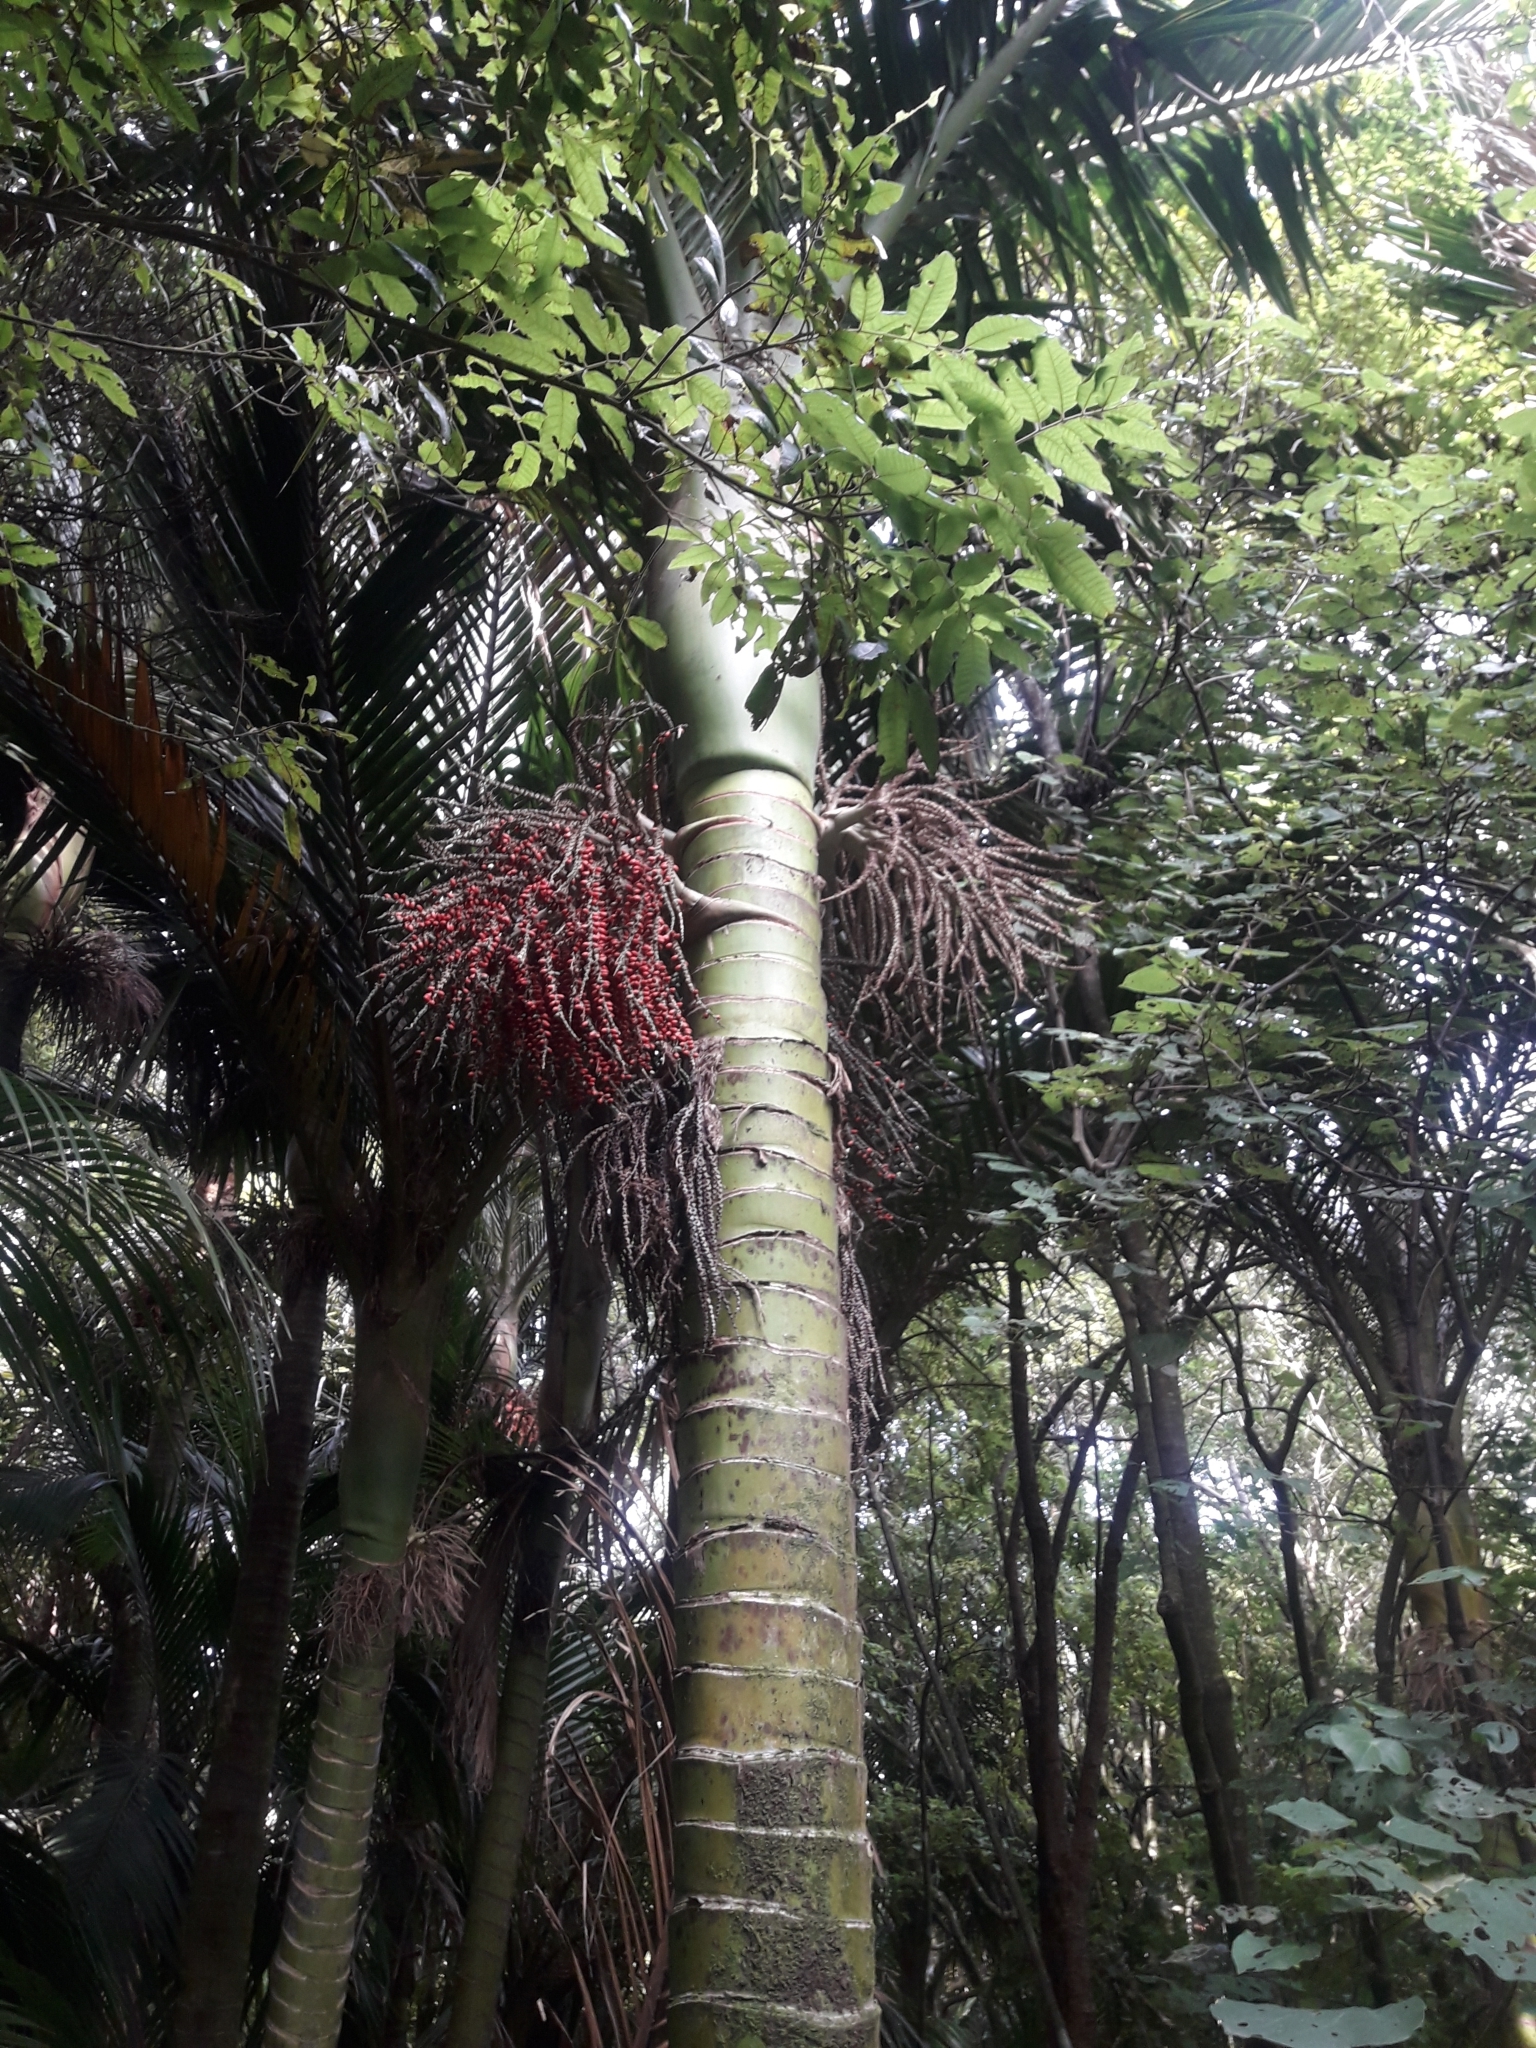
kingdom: Plantae
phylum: Tracheophyta
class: Liliopsida
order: Arecales
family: Arecaceae
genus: Rhopalostylis
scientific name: Rhopalostylis sapida
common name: Feather-duster palm
